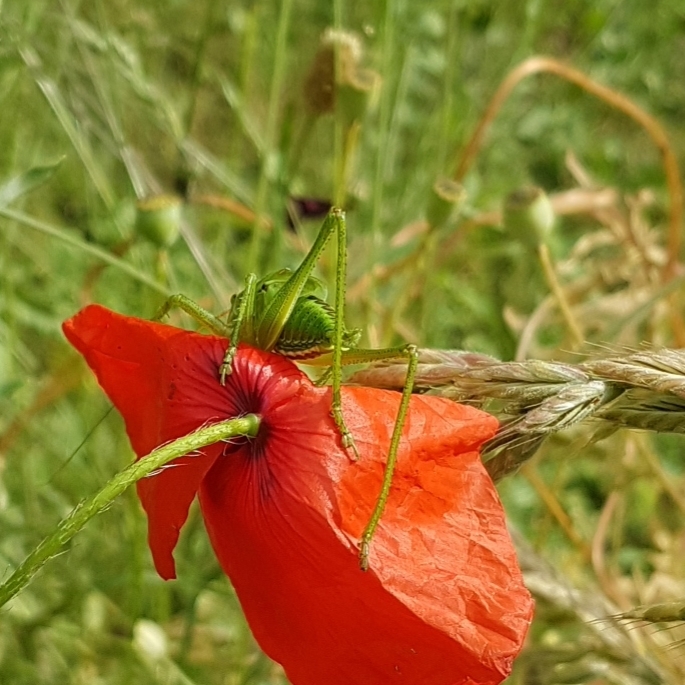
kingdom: Animalia
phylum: Arthropoda
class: Insecta
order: Orthoptera
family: Tettigoniidae
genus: Tettigonia
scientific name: Tettigonia viridissima
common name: Great green bush-cricket
